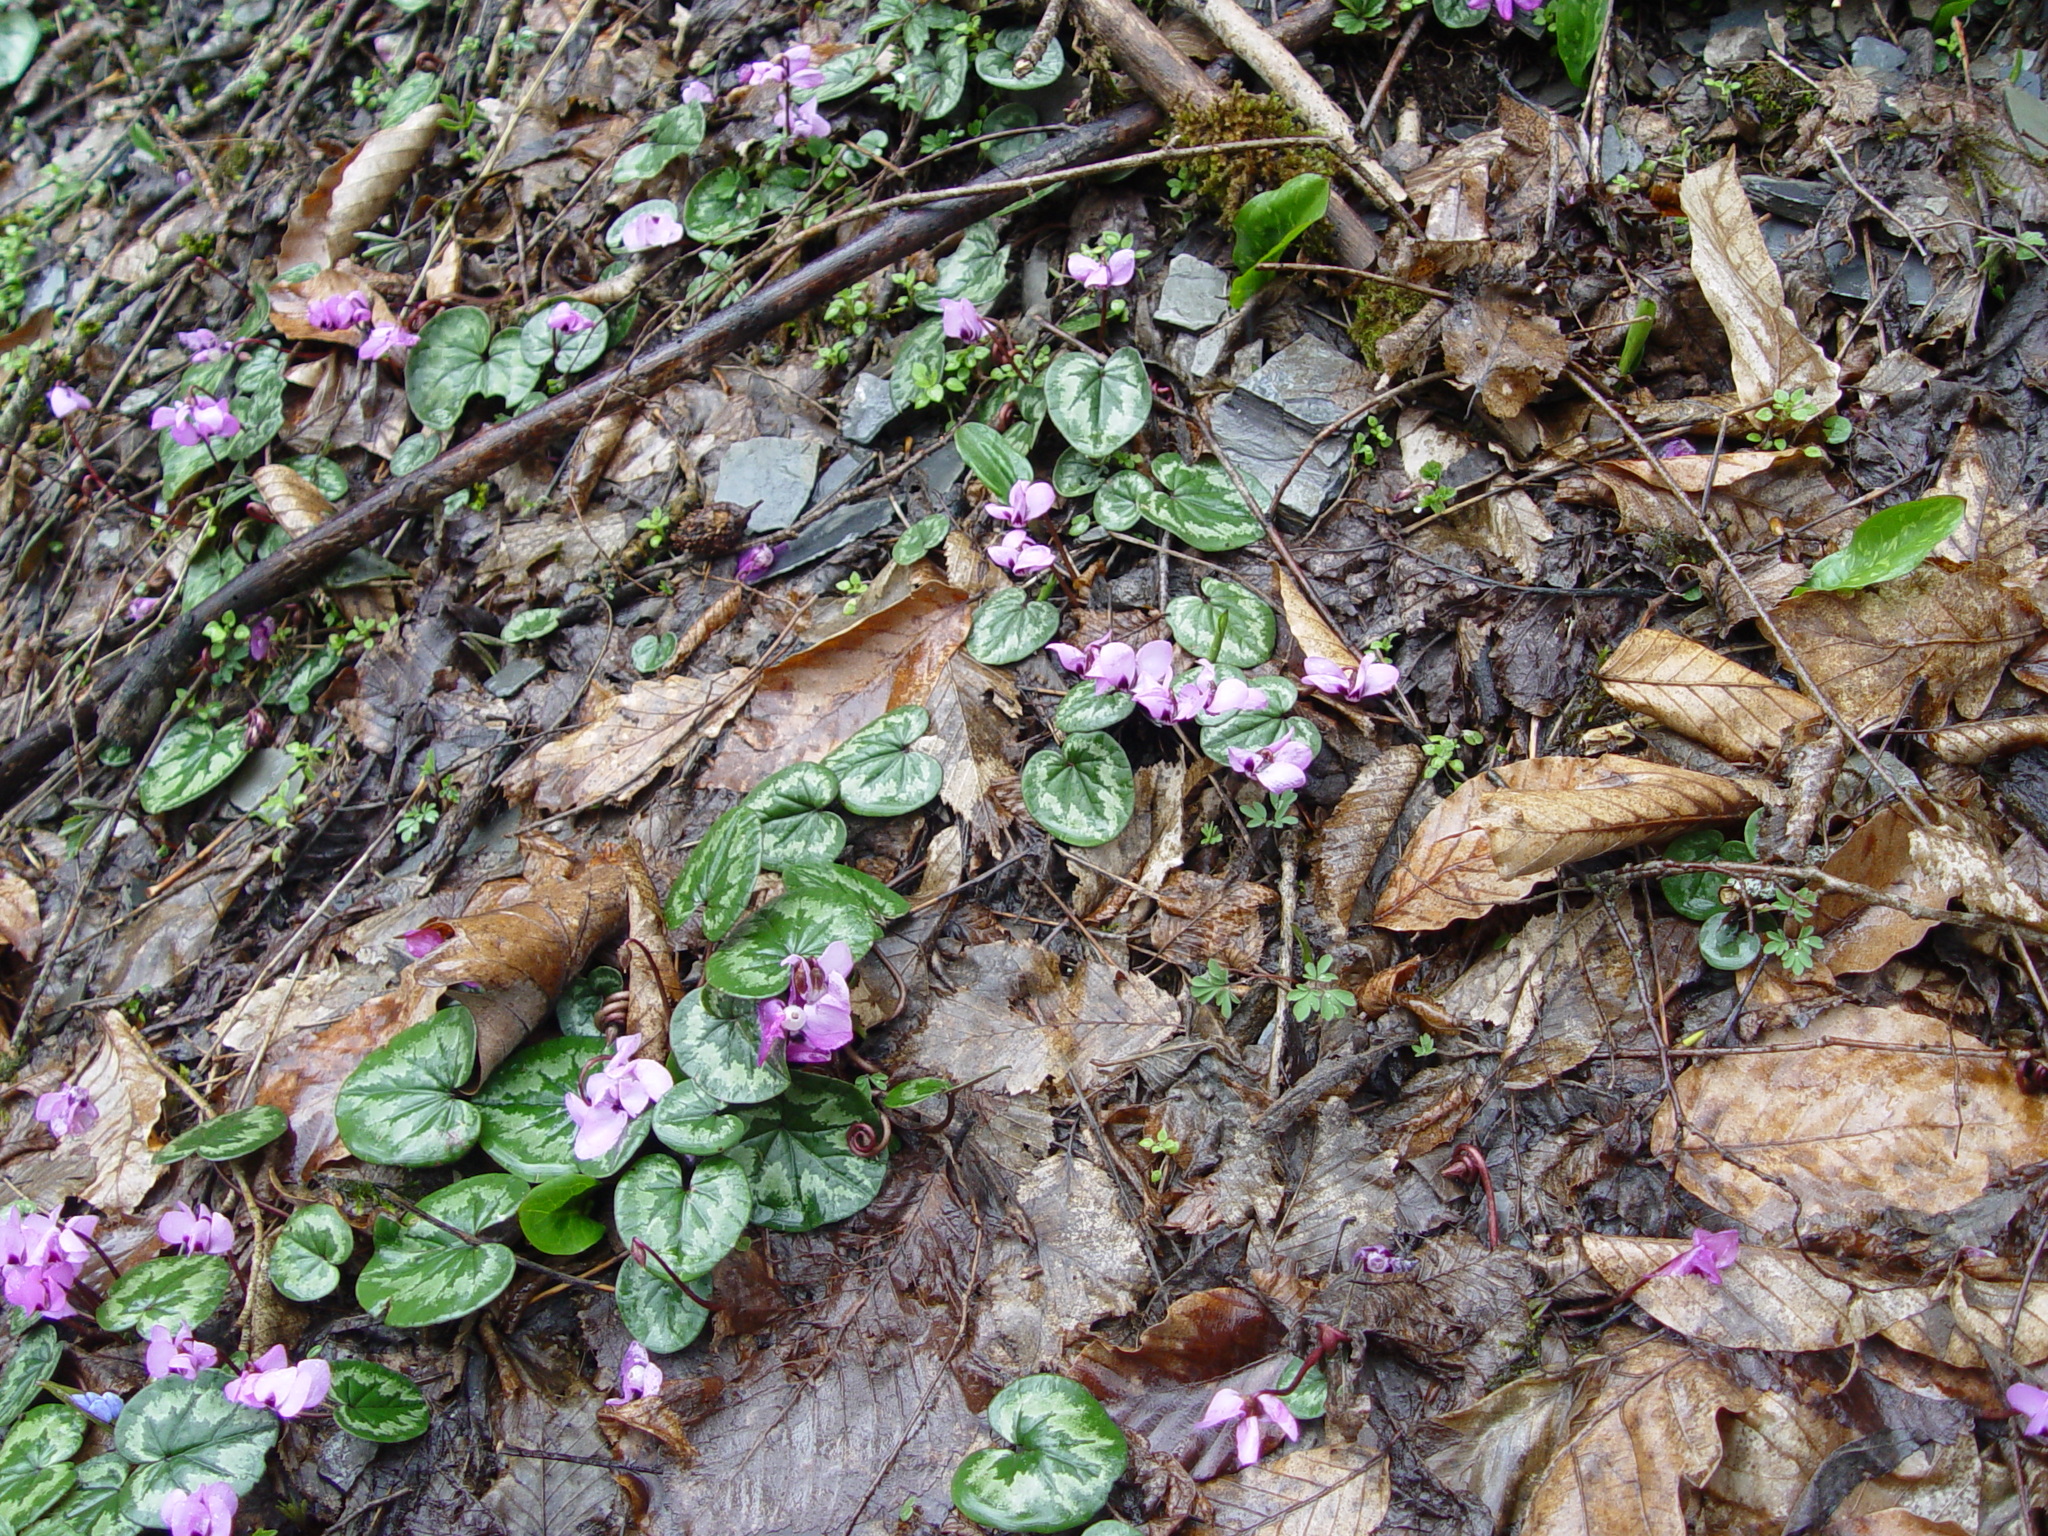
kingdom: Plantae
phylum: Tracheophyta
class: Magnoliopsida
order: Ericales
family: Primulaceae
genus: Cyclamen
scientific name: Cyclamen coum
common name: Eastern sowbread
